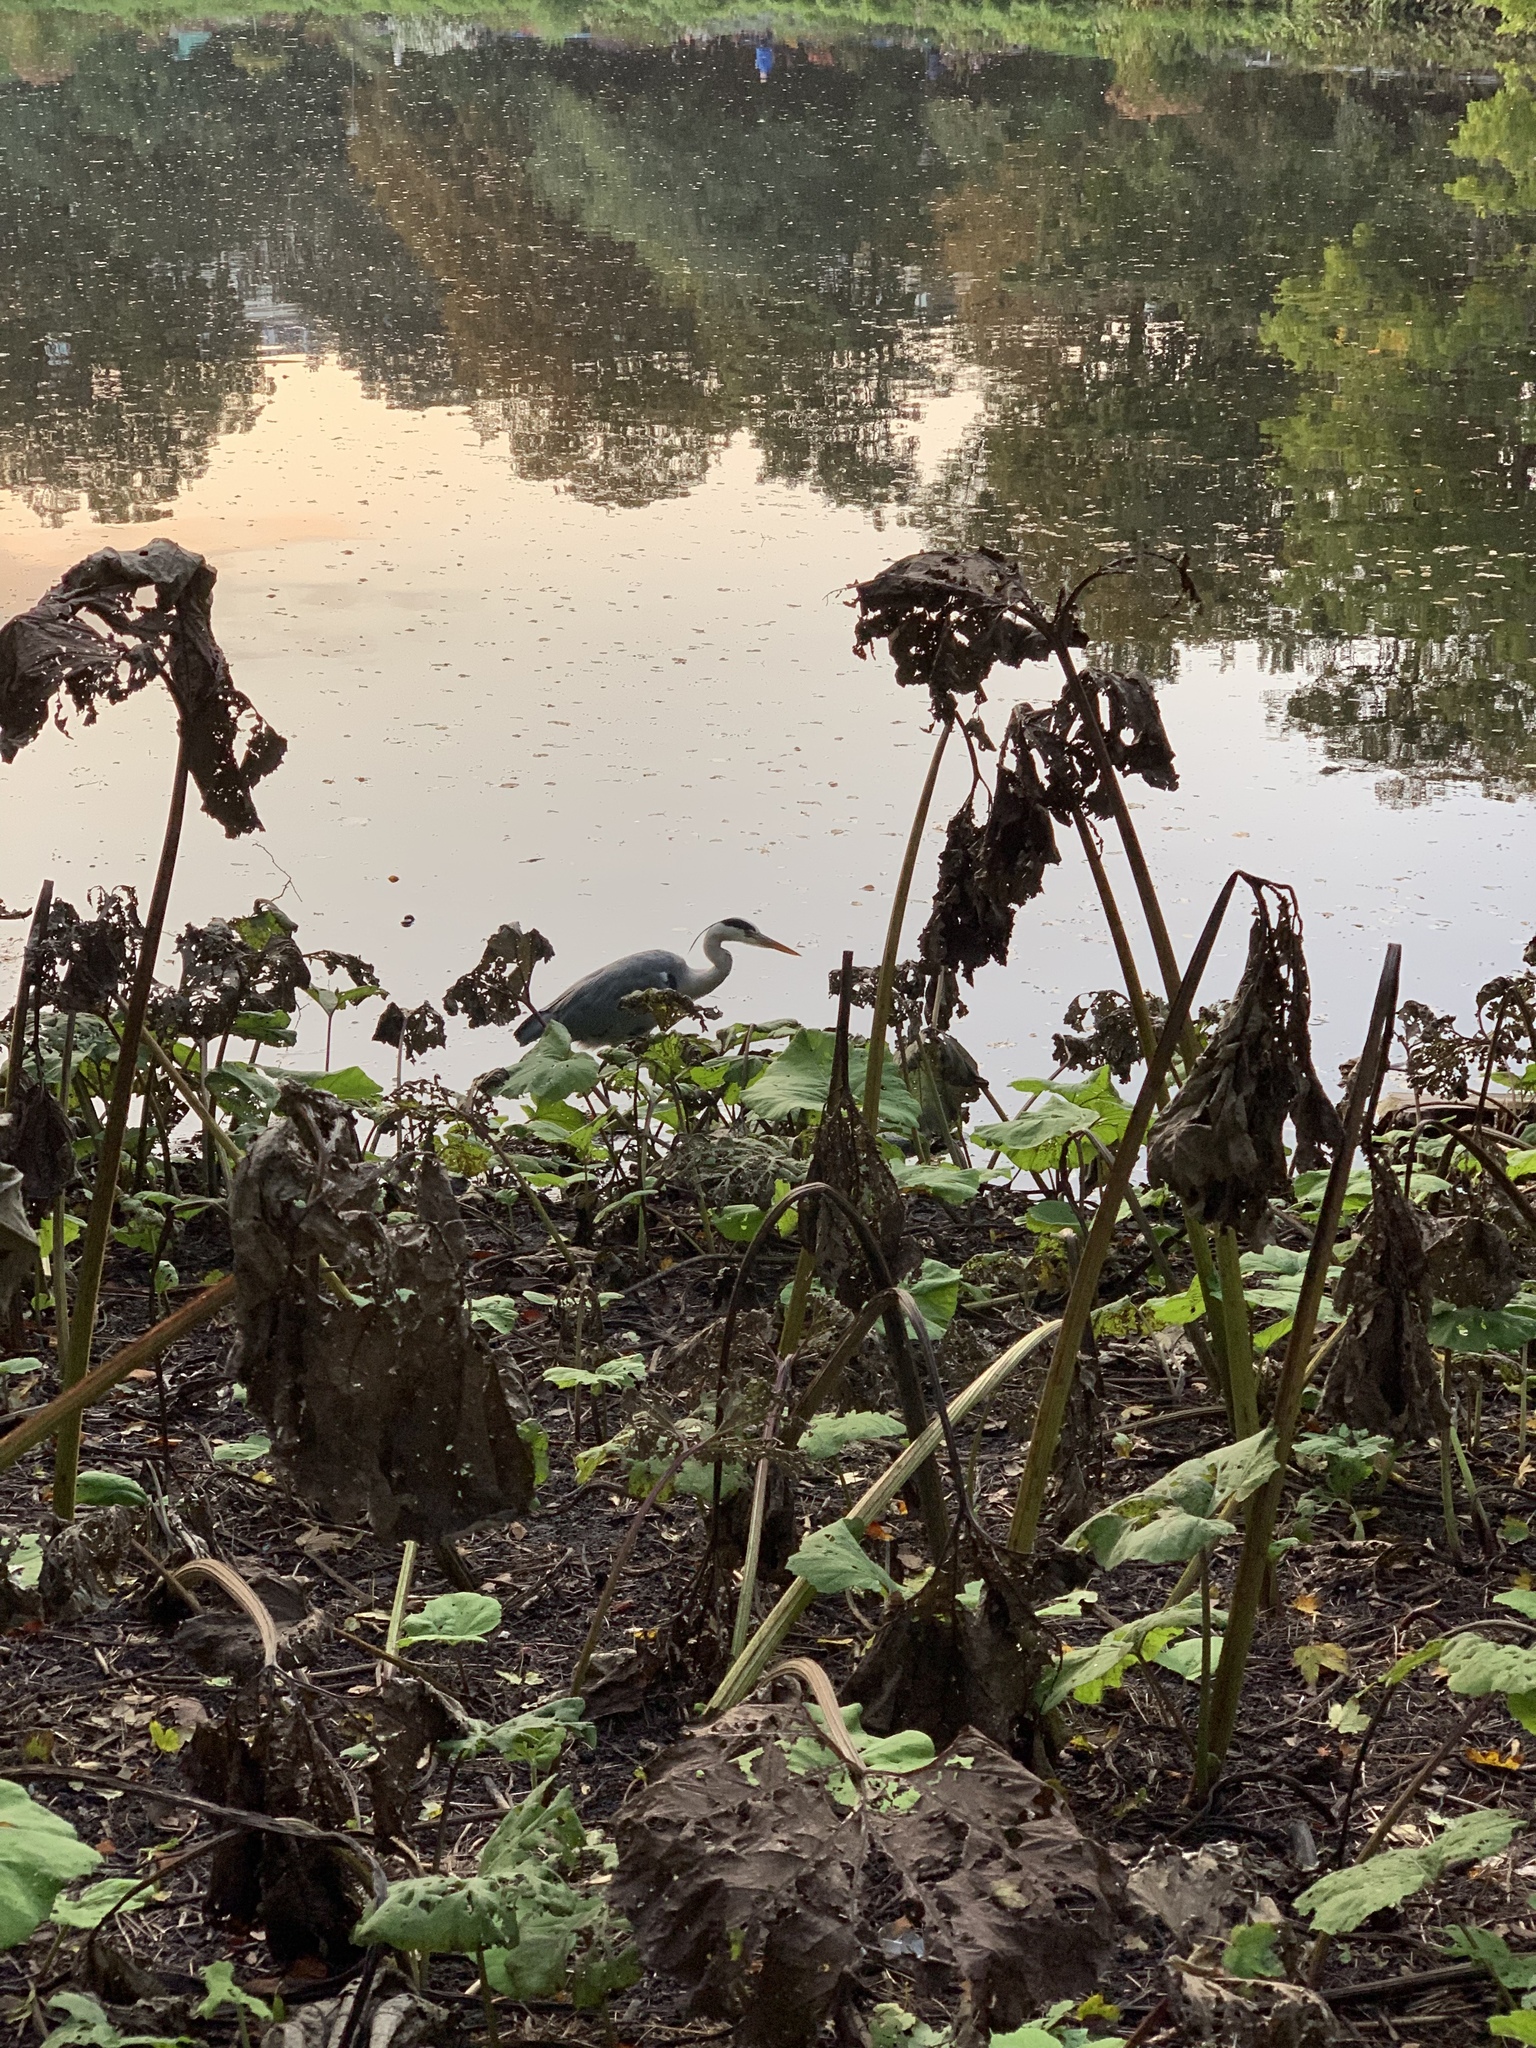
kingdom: Animalia
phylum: Chordata
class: Aves
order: Pelecaniformes
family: Ardeidae
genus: Ardea
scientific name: Ardea cinerea
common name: Grey heron
